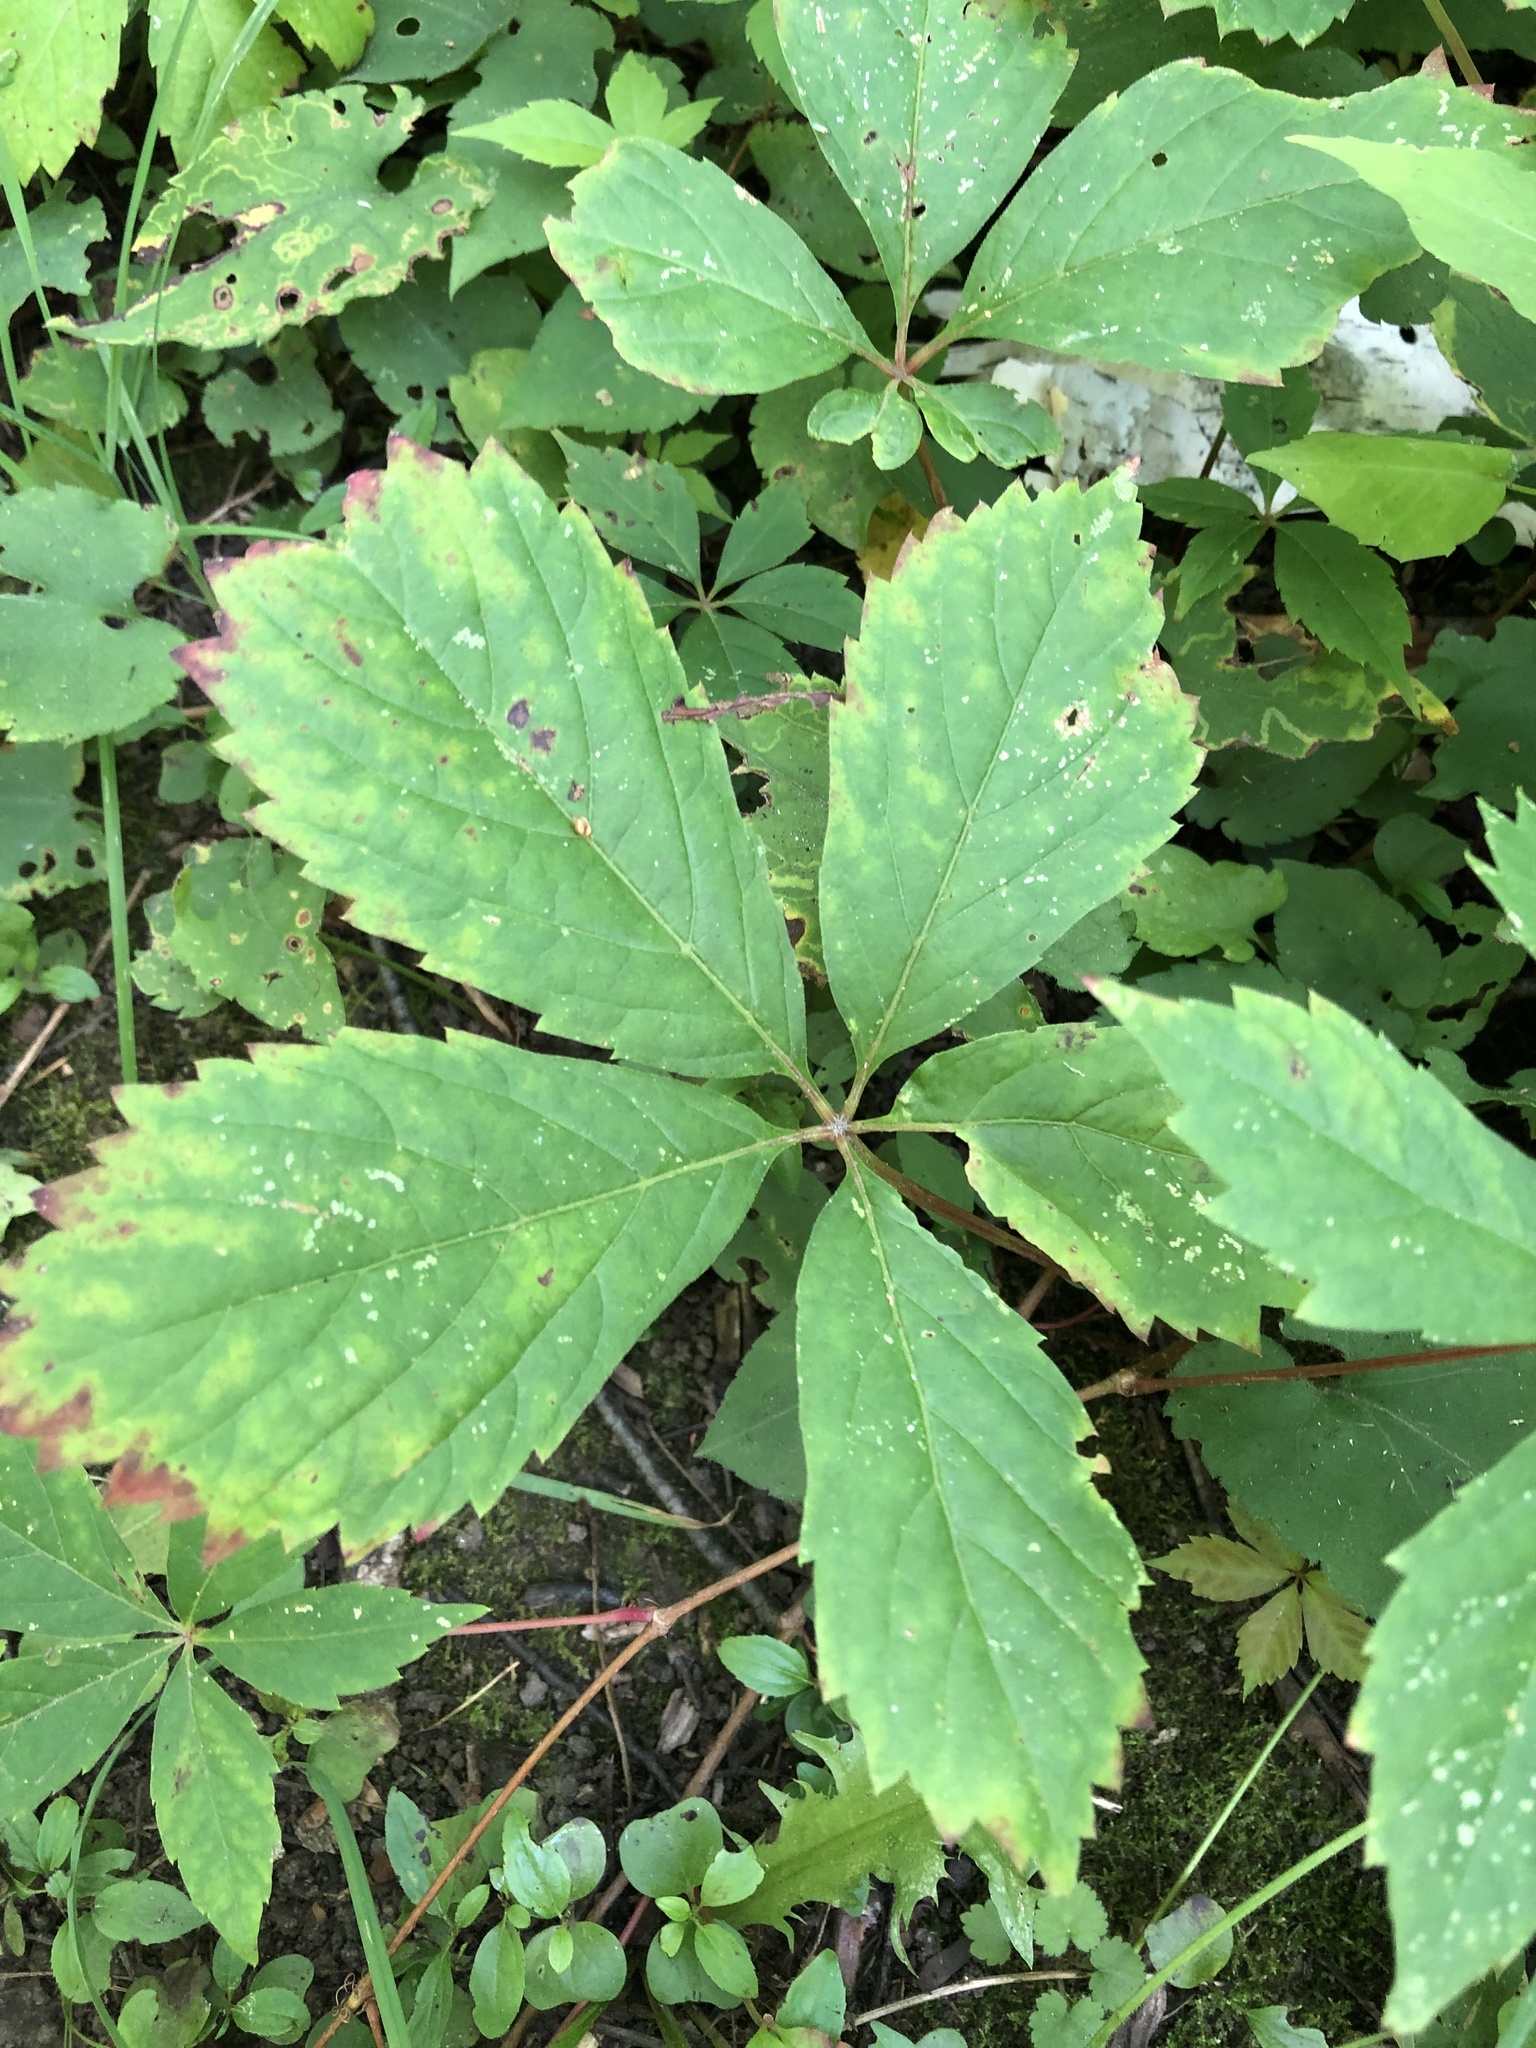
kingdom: Plantae
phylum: Tracheophyta
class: Magnoliopsida
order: Vitales
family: Vitaceae
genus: Parthenocissus
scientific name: Parthenocissus quinquefolia
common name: Virginia-creeper
